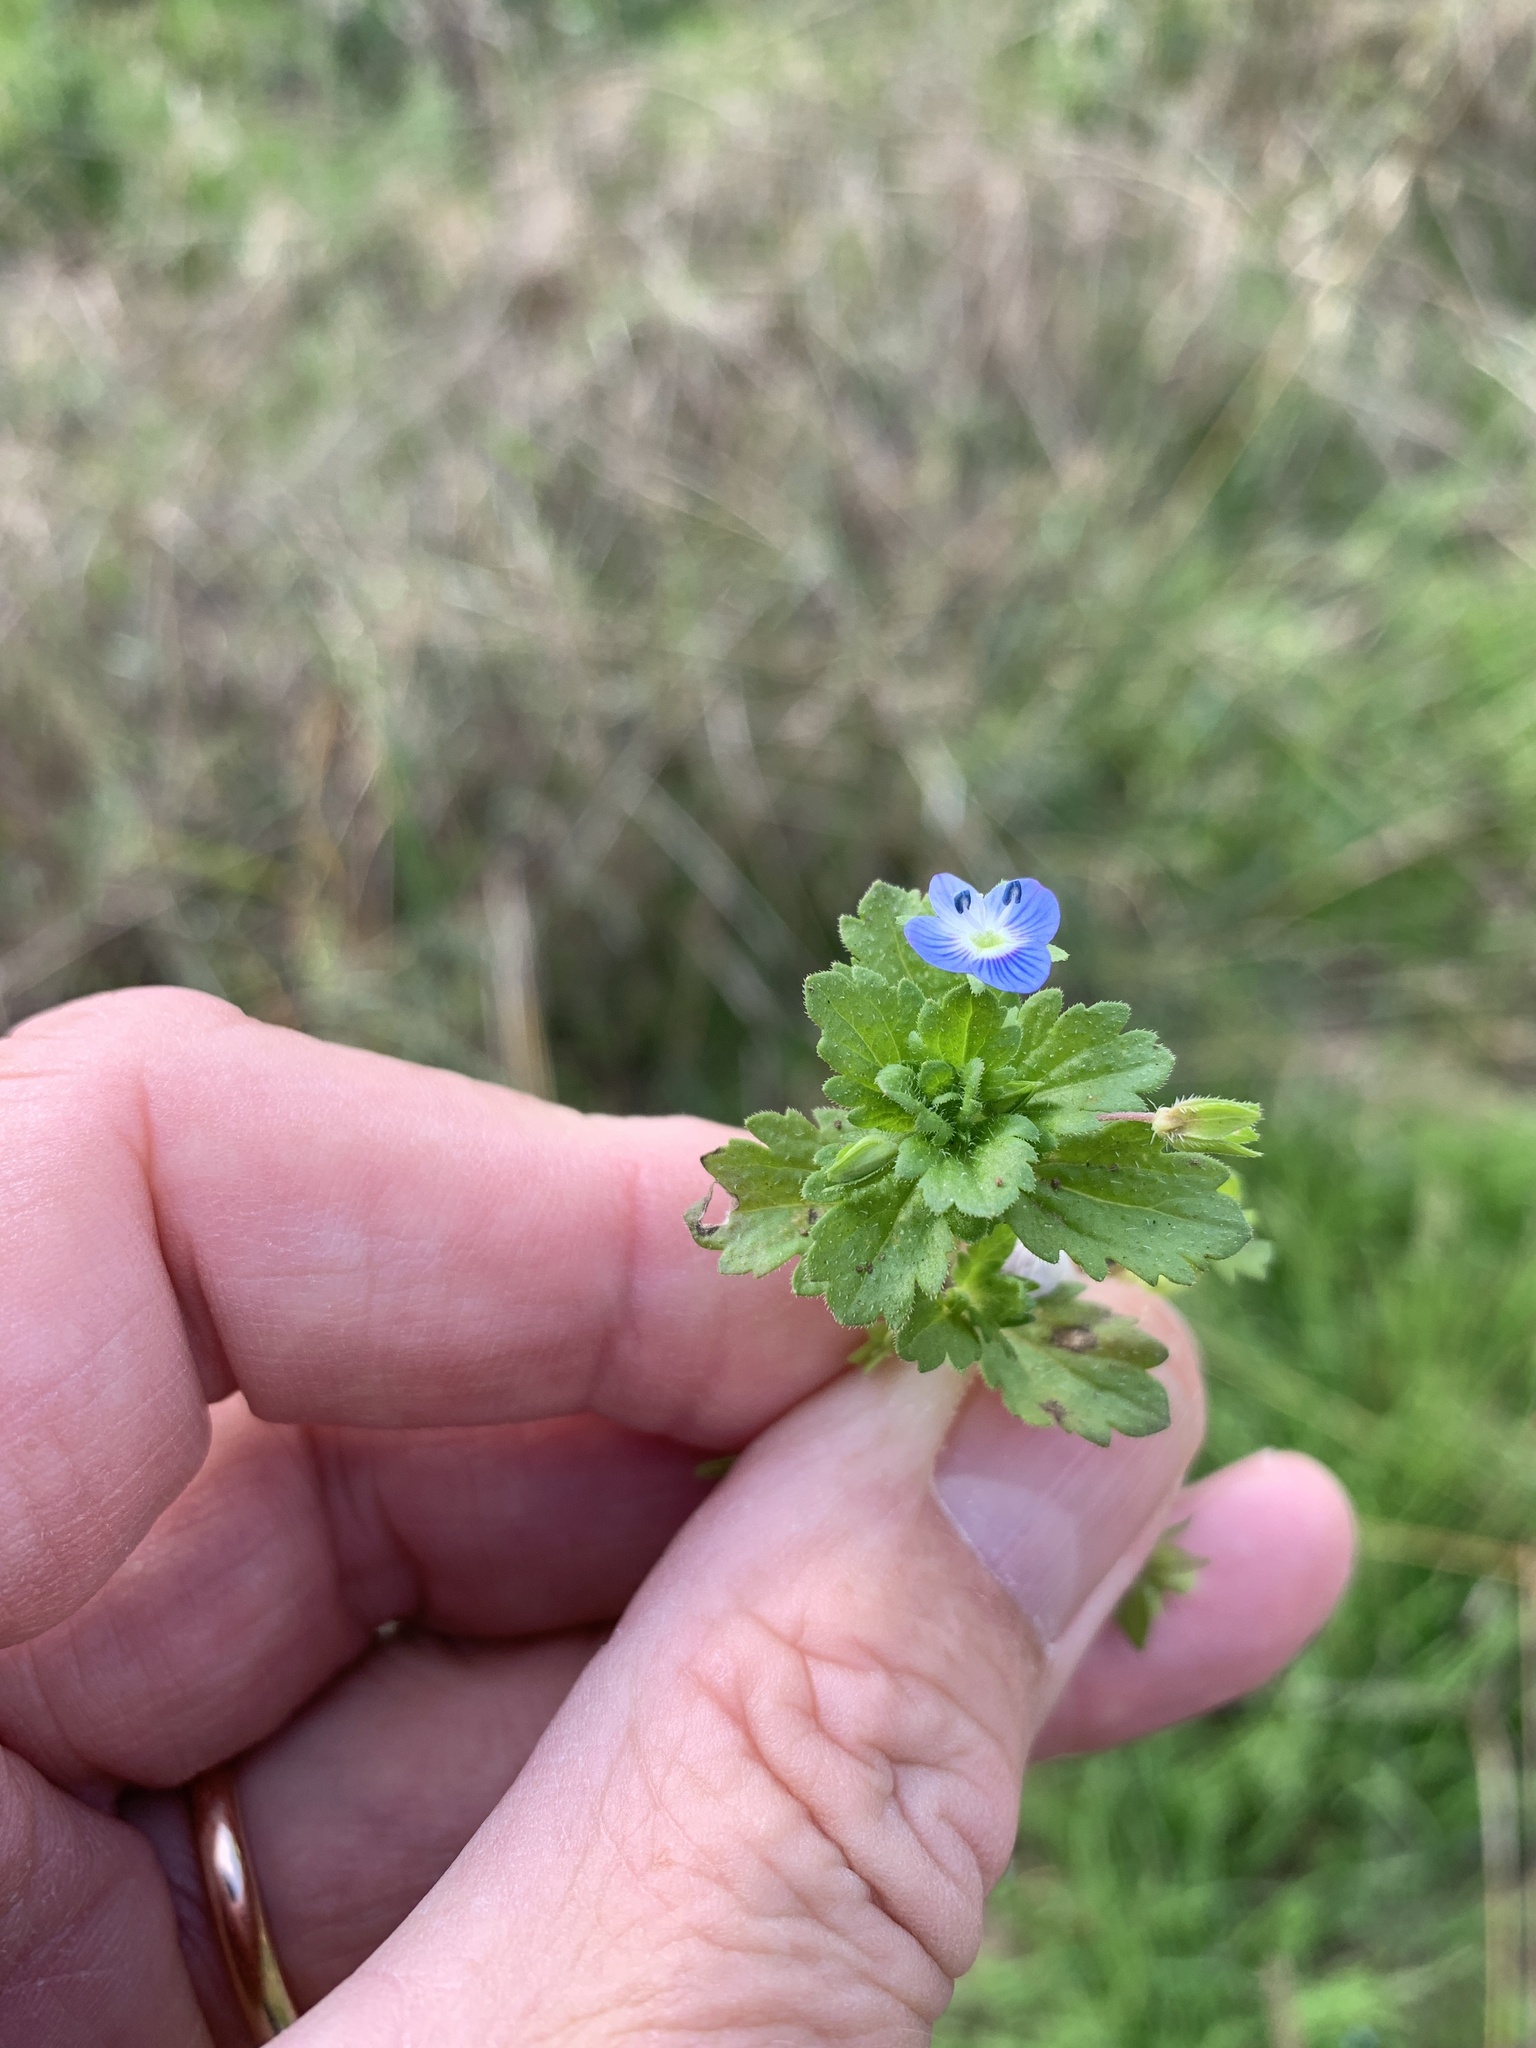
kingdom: Plantae
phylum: Tracheophyta
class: Magnoliopsida
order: Lamiales
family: Plantaginaceae
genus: Veronica
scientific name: Veronica persica
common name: Common field-speedwell
